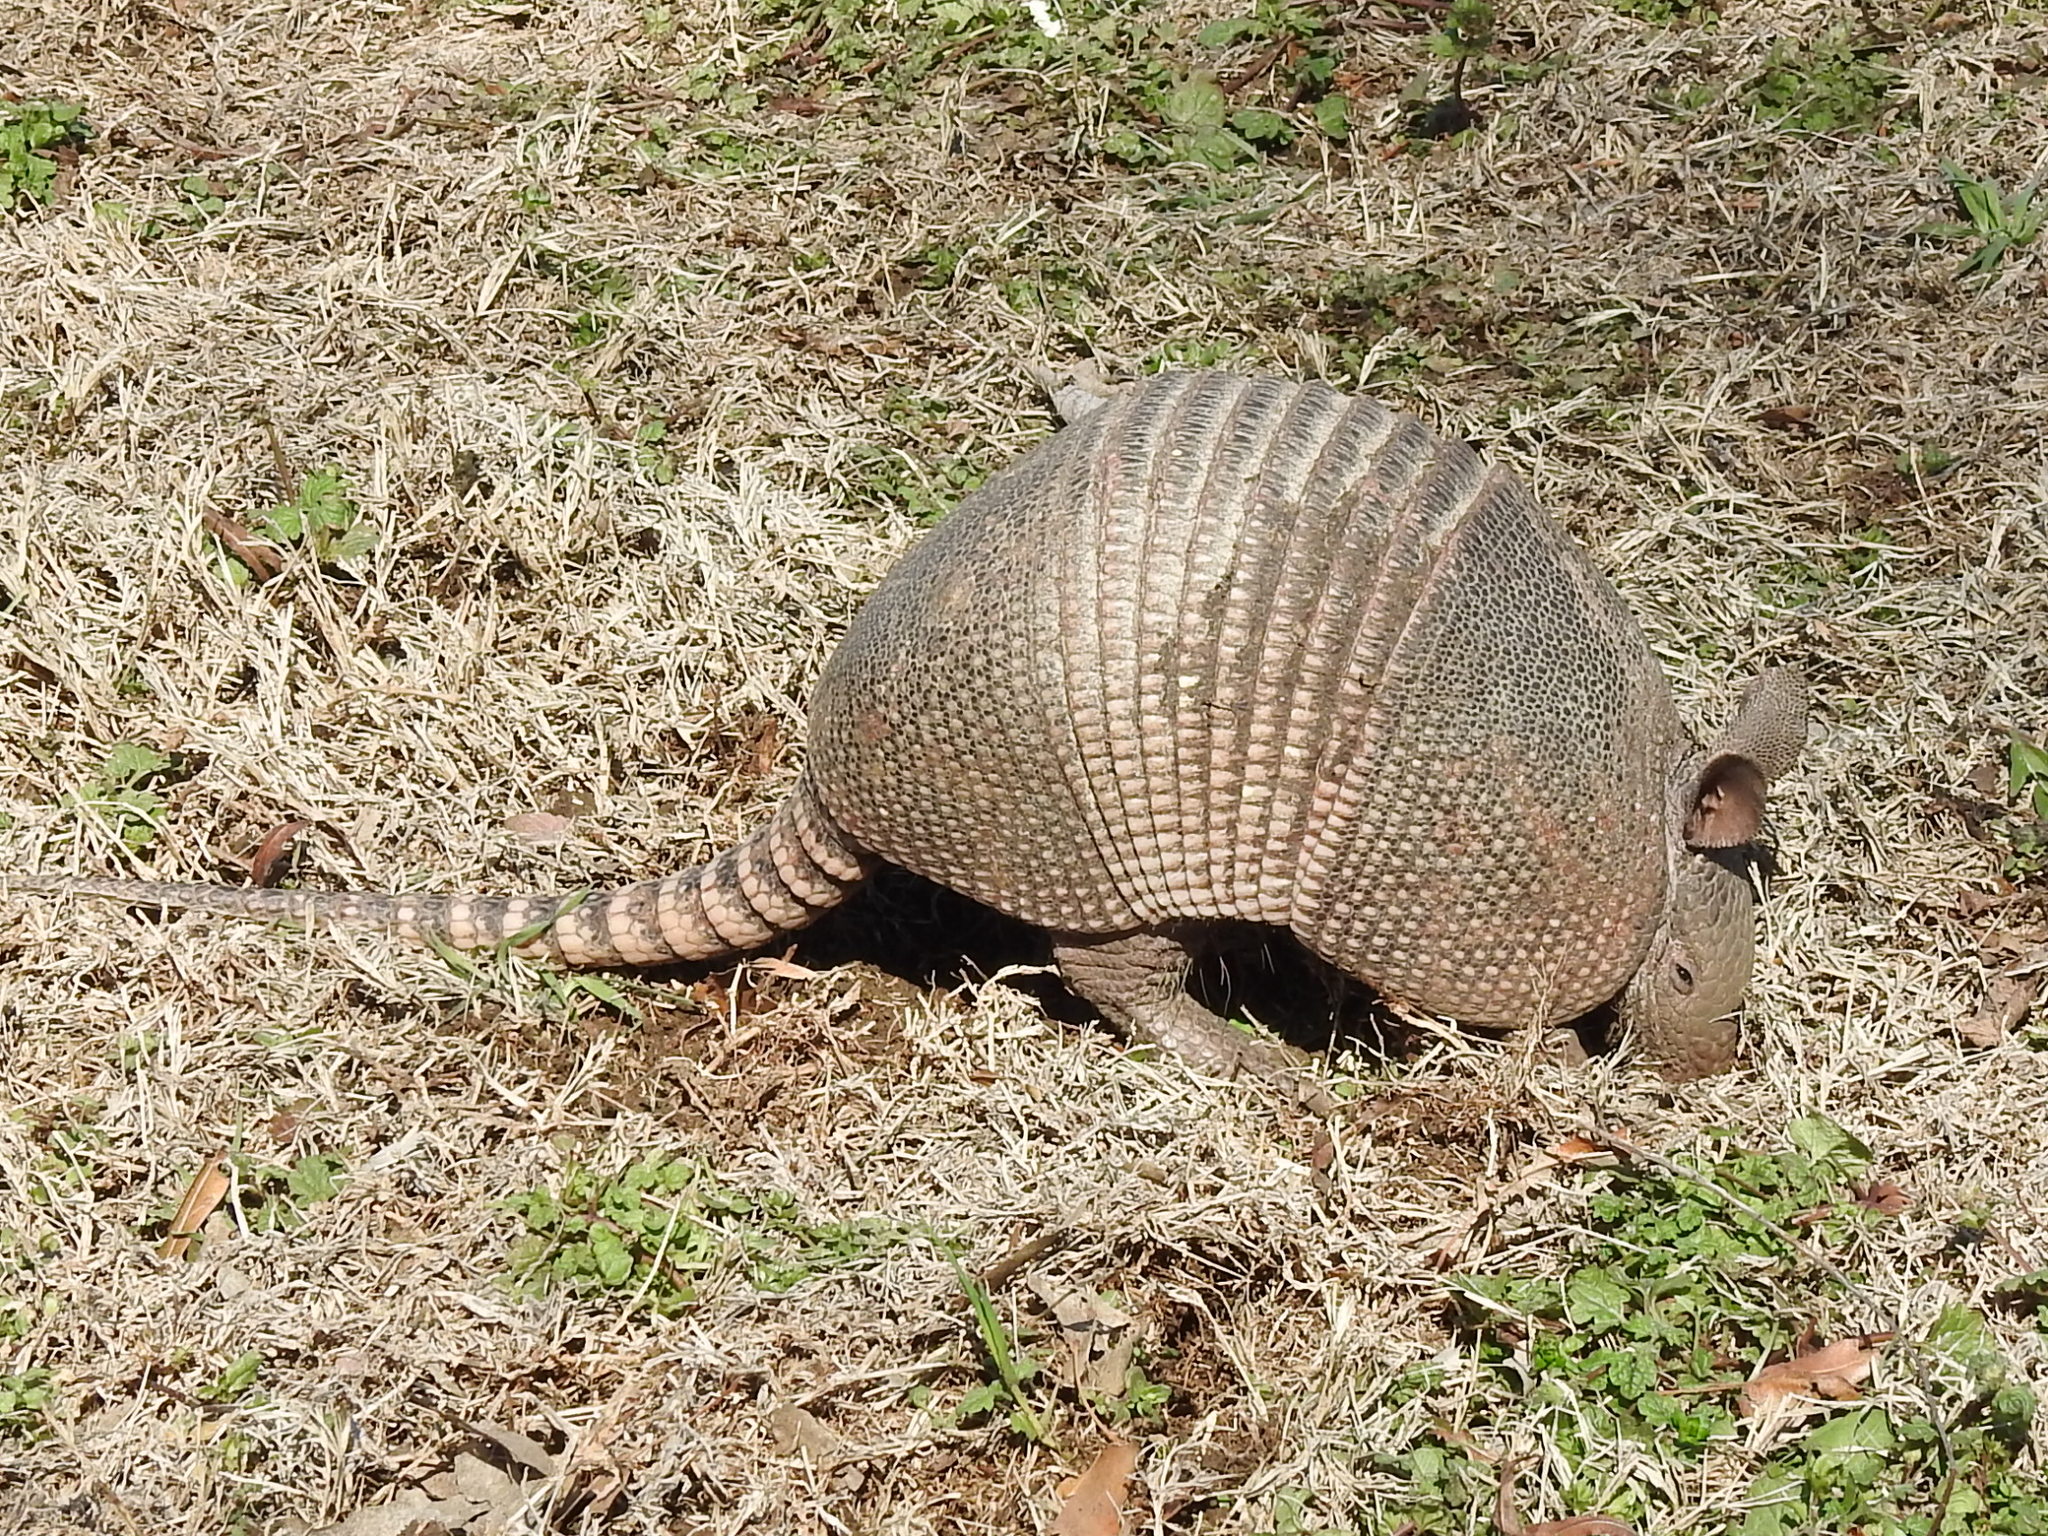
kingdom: Animalia
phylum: Chordata
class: Mammalia
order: Cingulata
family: Dasypodidae
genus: Dasypus
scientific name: Dasypus novemcinctus
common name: Nine-banded armadillo
